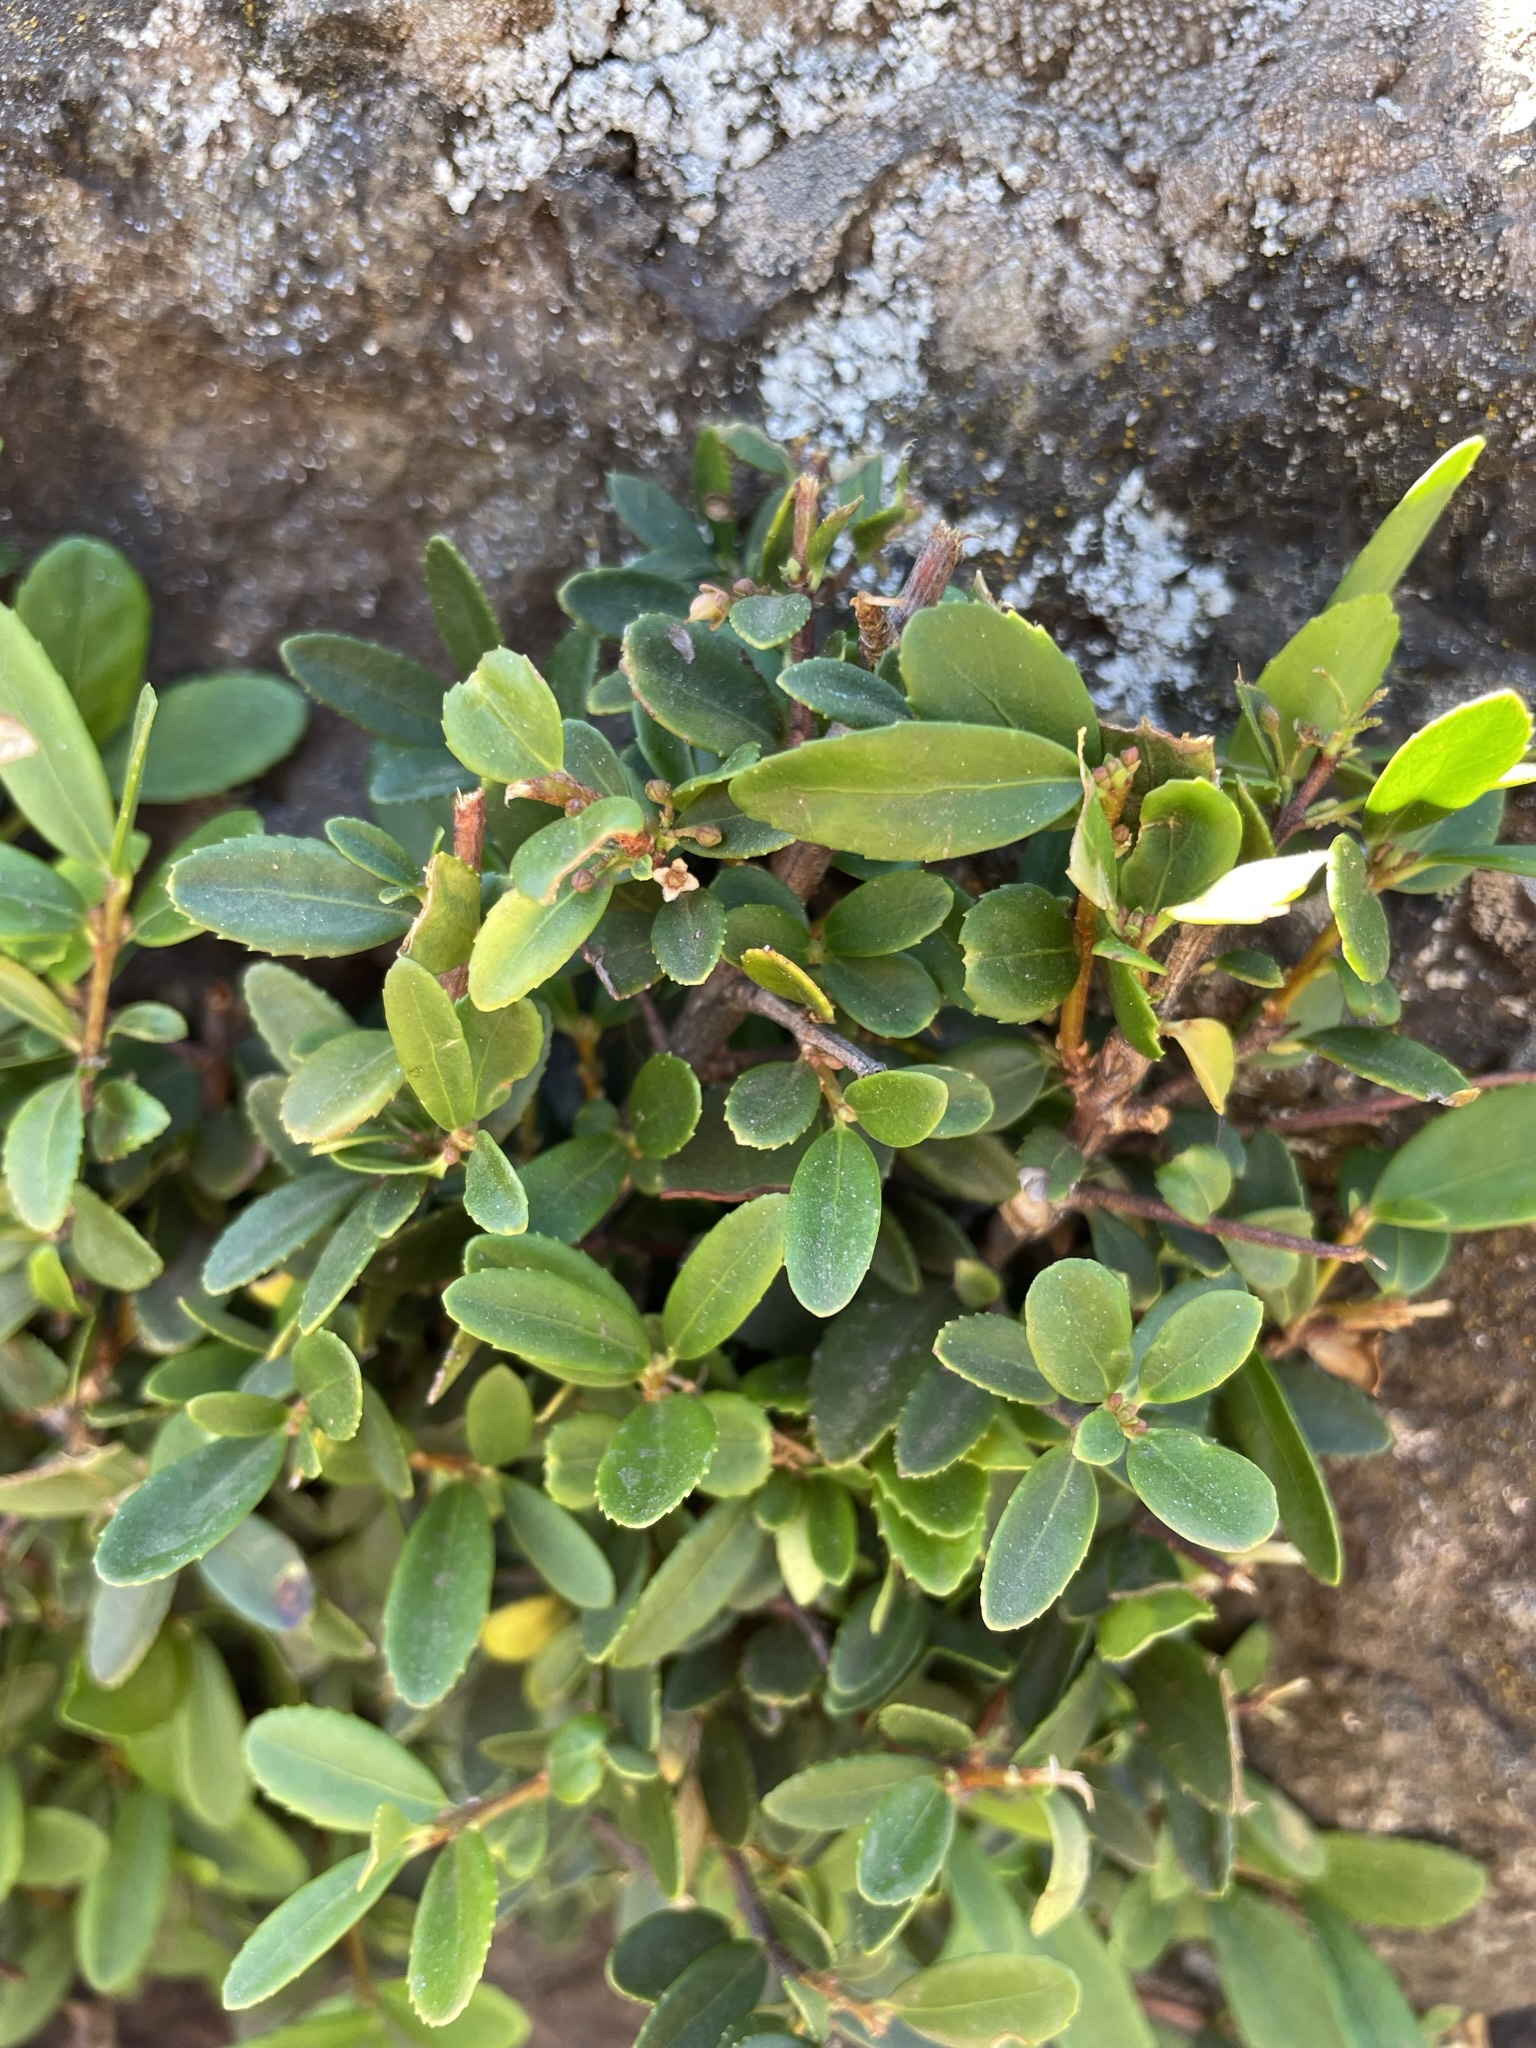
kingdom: Plantae
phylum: Tracheophyta
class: Magnoliopsida
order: Celastrales
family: Celastraceae
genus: Paxistima
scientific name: Paxistima myrsinites
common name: Mountain-lover
